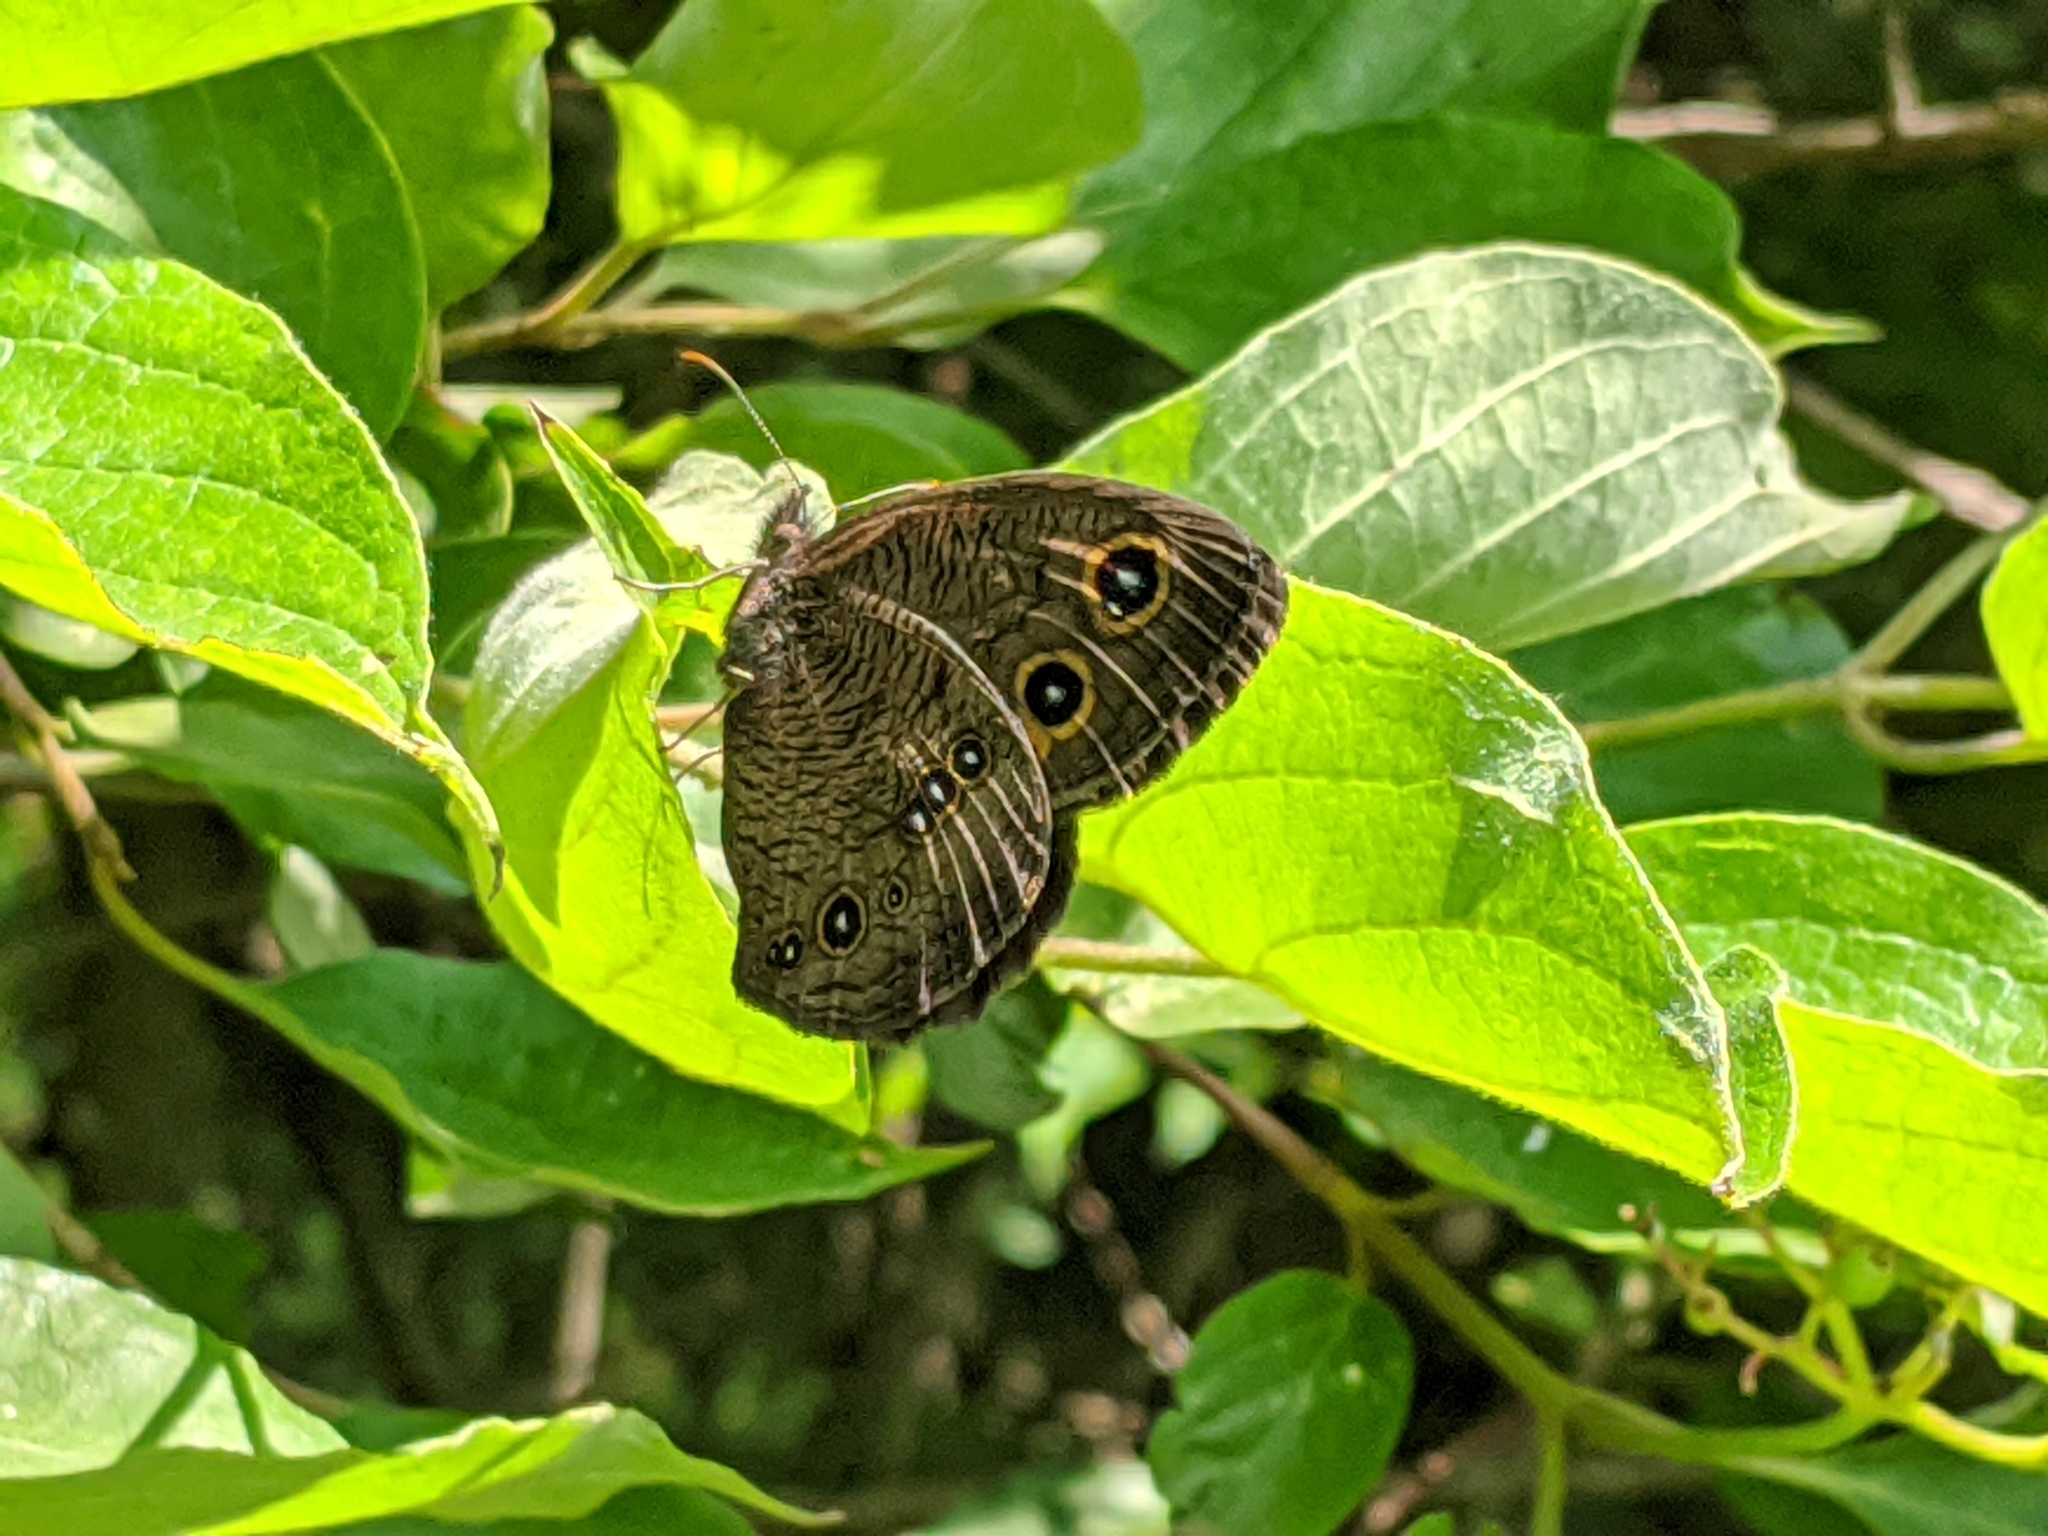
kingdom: Animalia
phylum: Arthropoda
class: Insecta
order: Lepidoptera
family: Nymphalidae
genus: Cercyonis
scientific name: Cercyonis pegala
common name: Common wood-nymph
